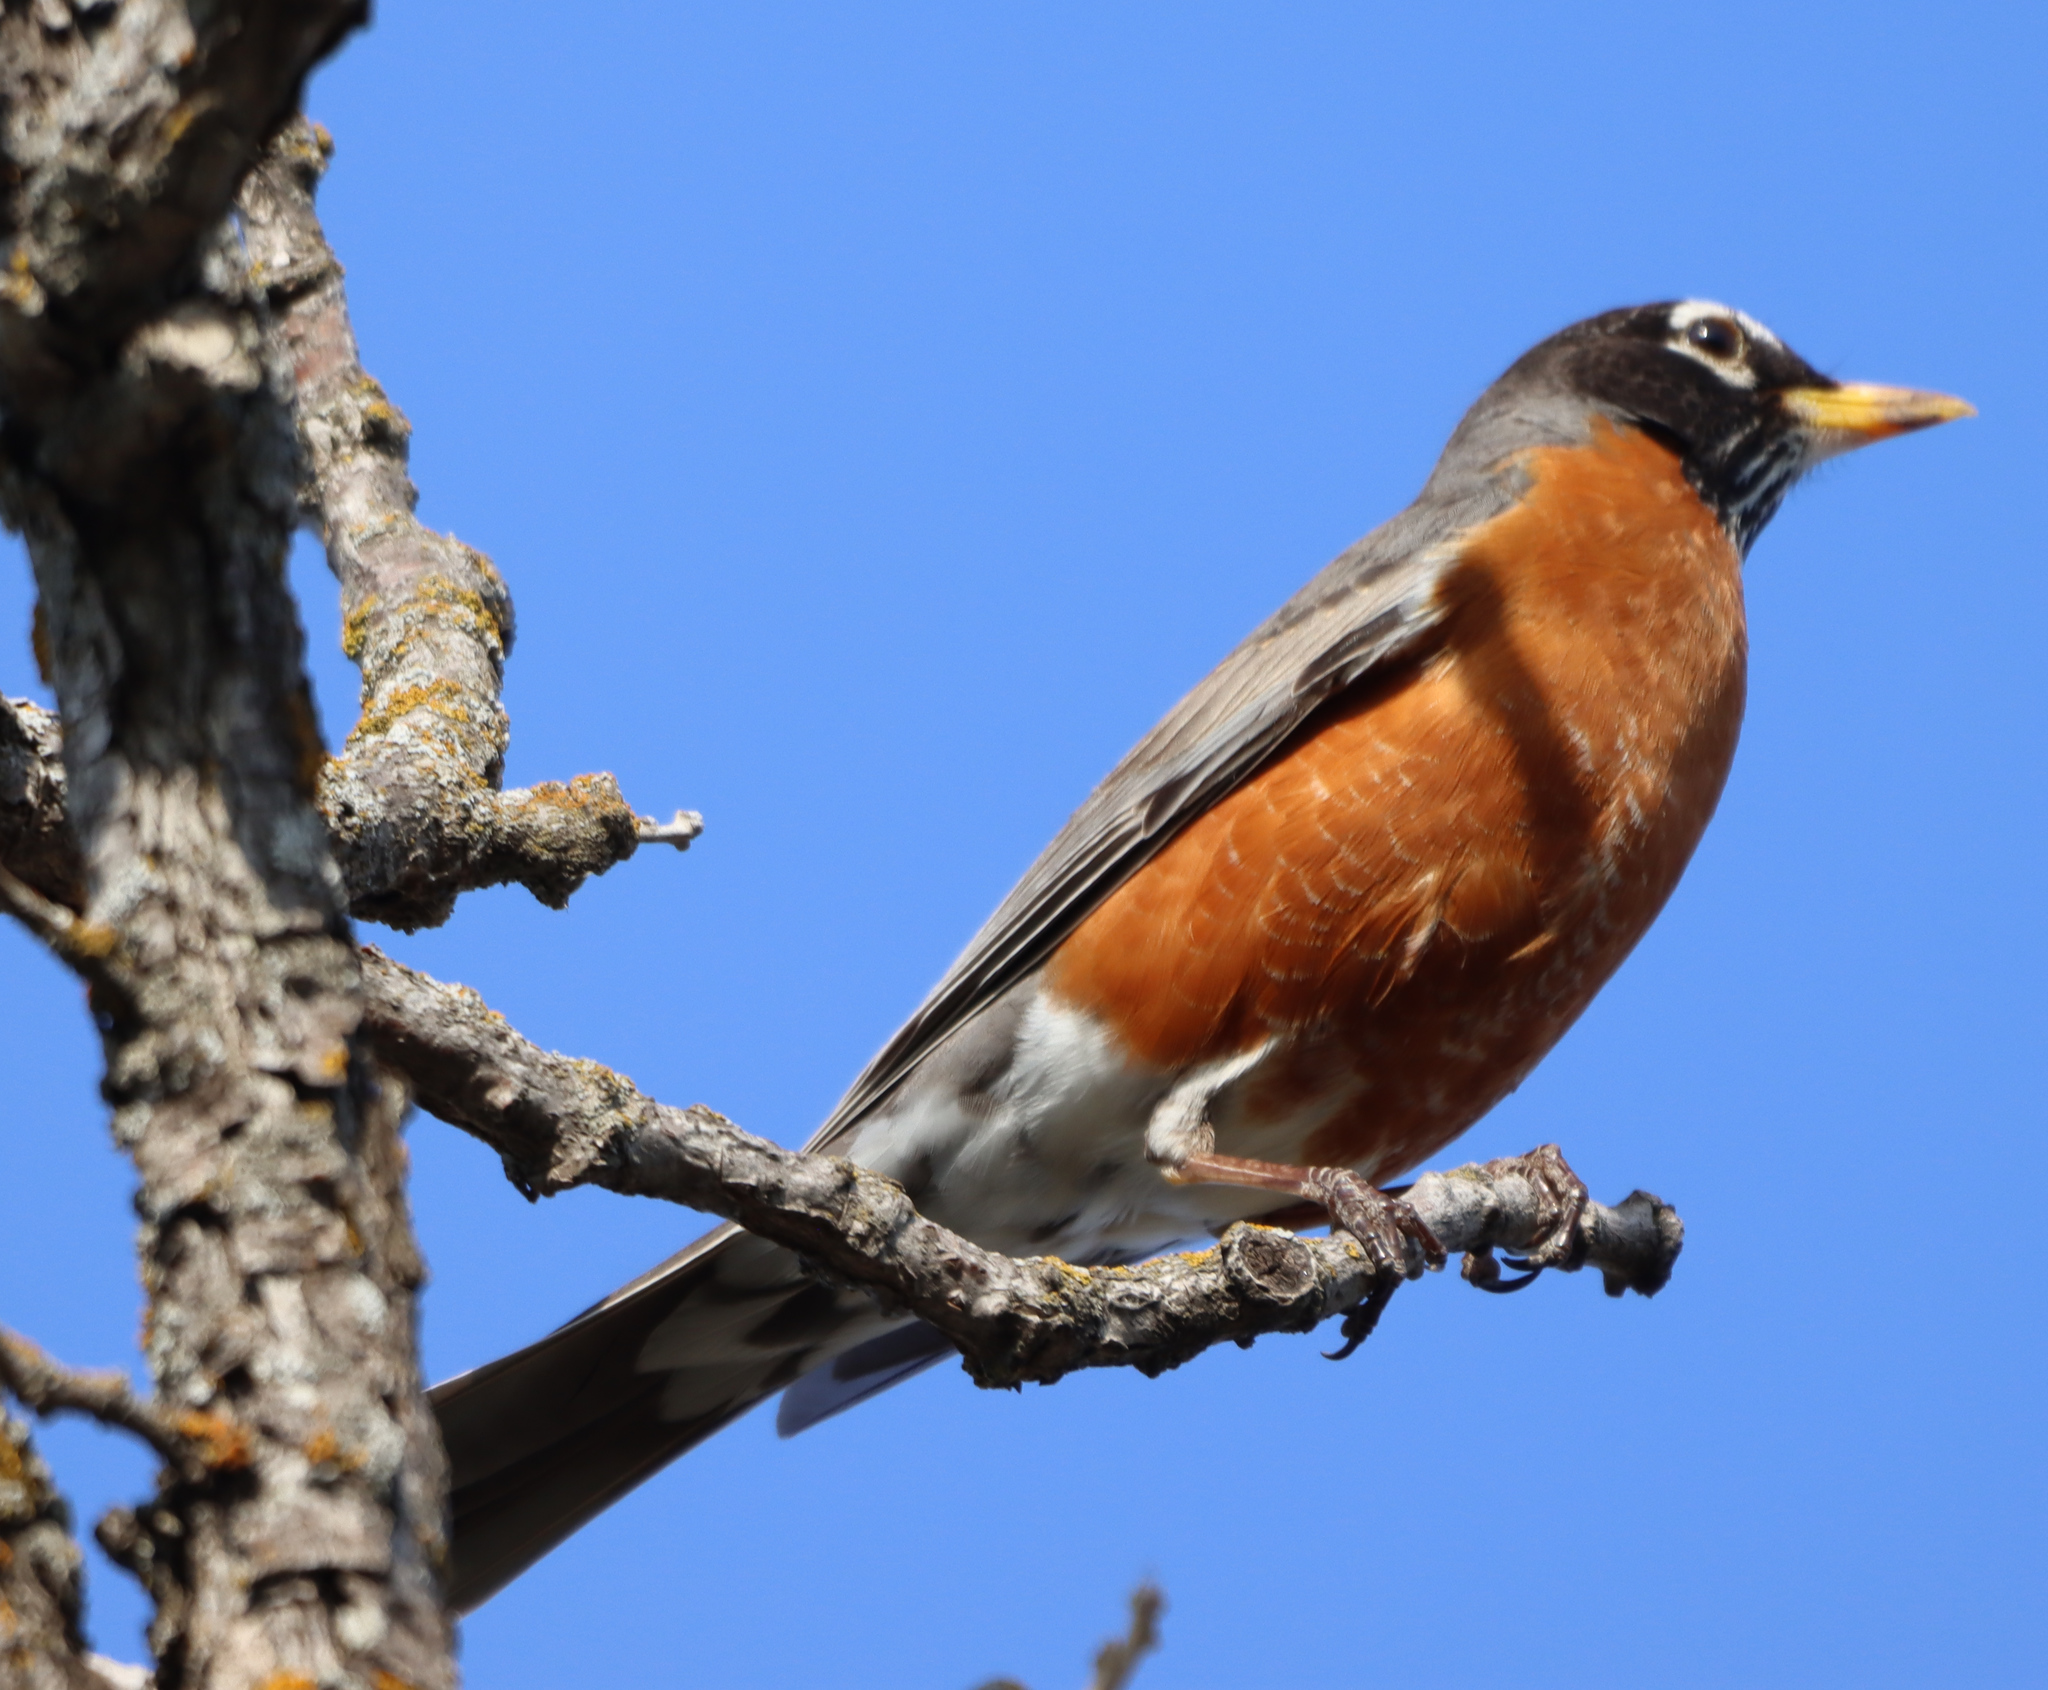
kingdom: Animalia
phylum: Chordata
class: Aves
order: Passeriformes
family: Turdidae
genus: Turdus
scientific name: Turdus migratorius
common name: American robin
